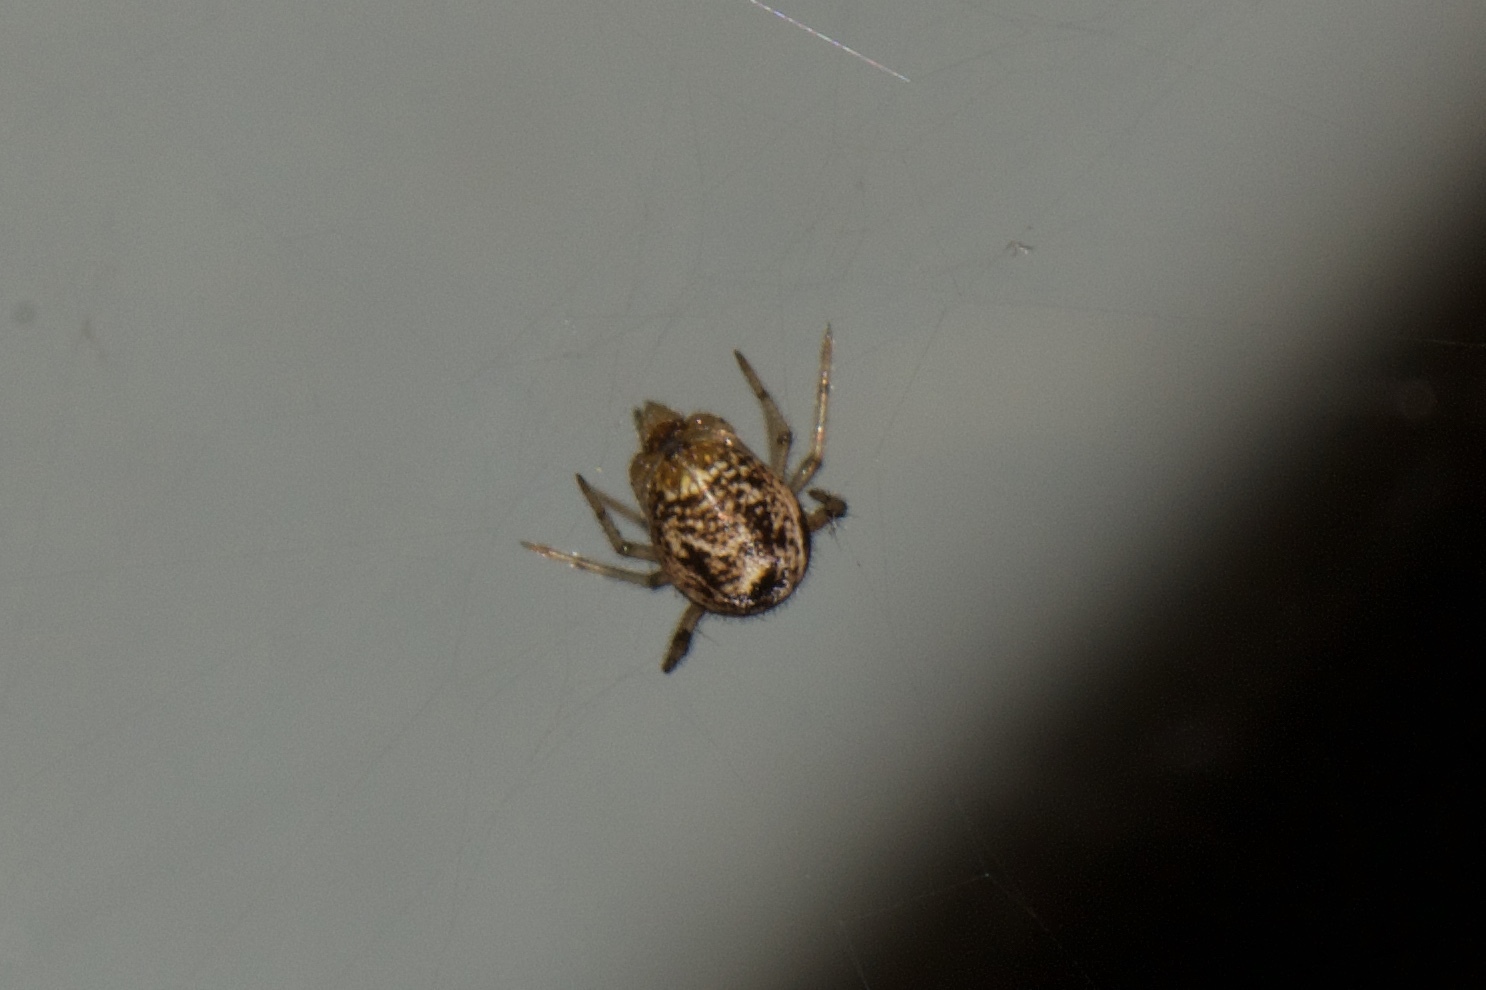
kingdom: Animalia
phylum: Arthropoda
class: Arachnida
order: Araneae
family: Theridiidae
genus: Parasteatoda
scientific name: Parasteatoda tepidariorum
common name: Common house spider
